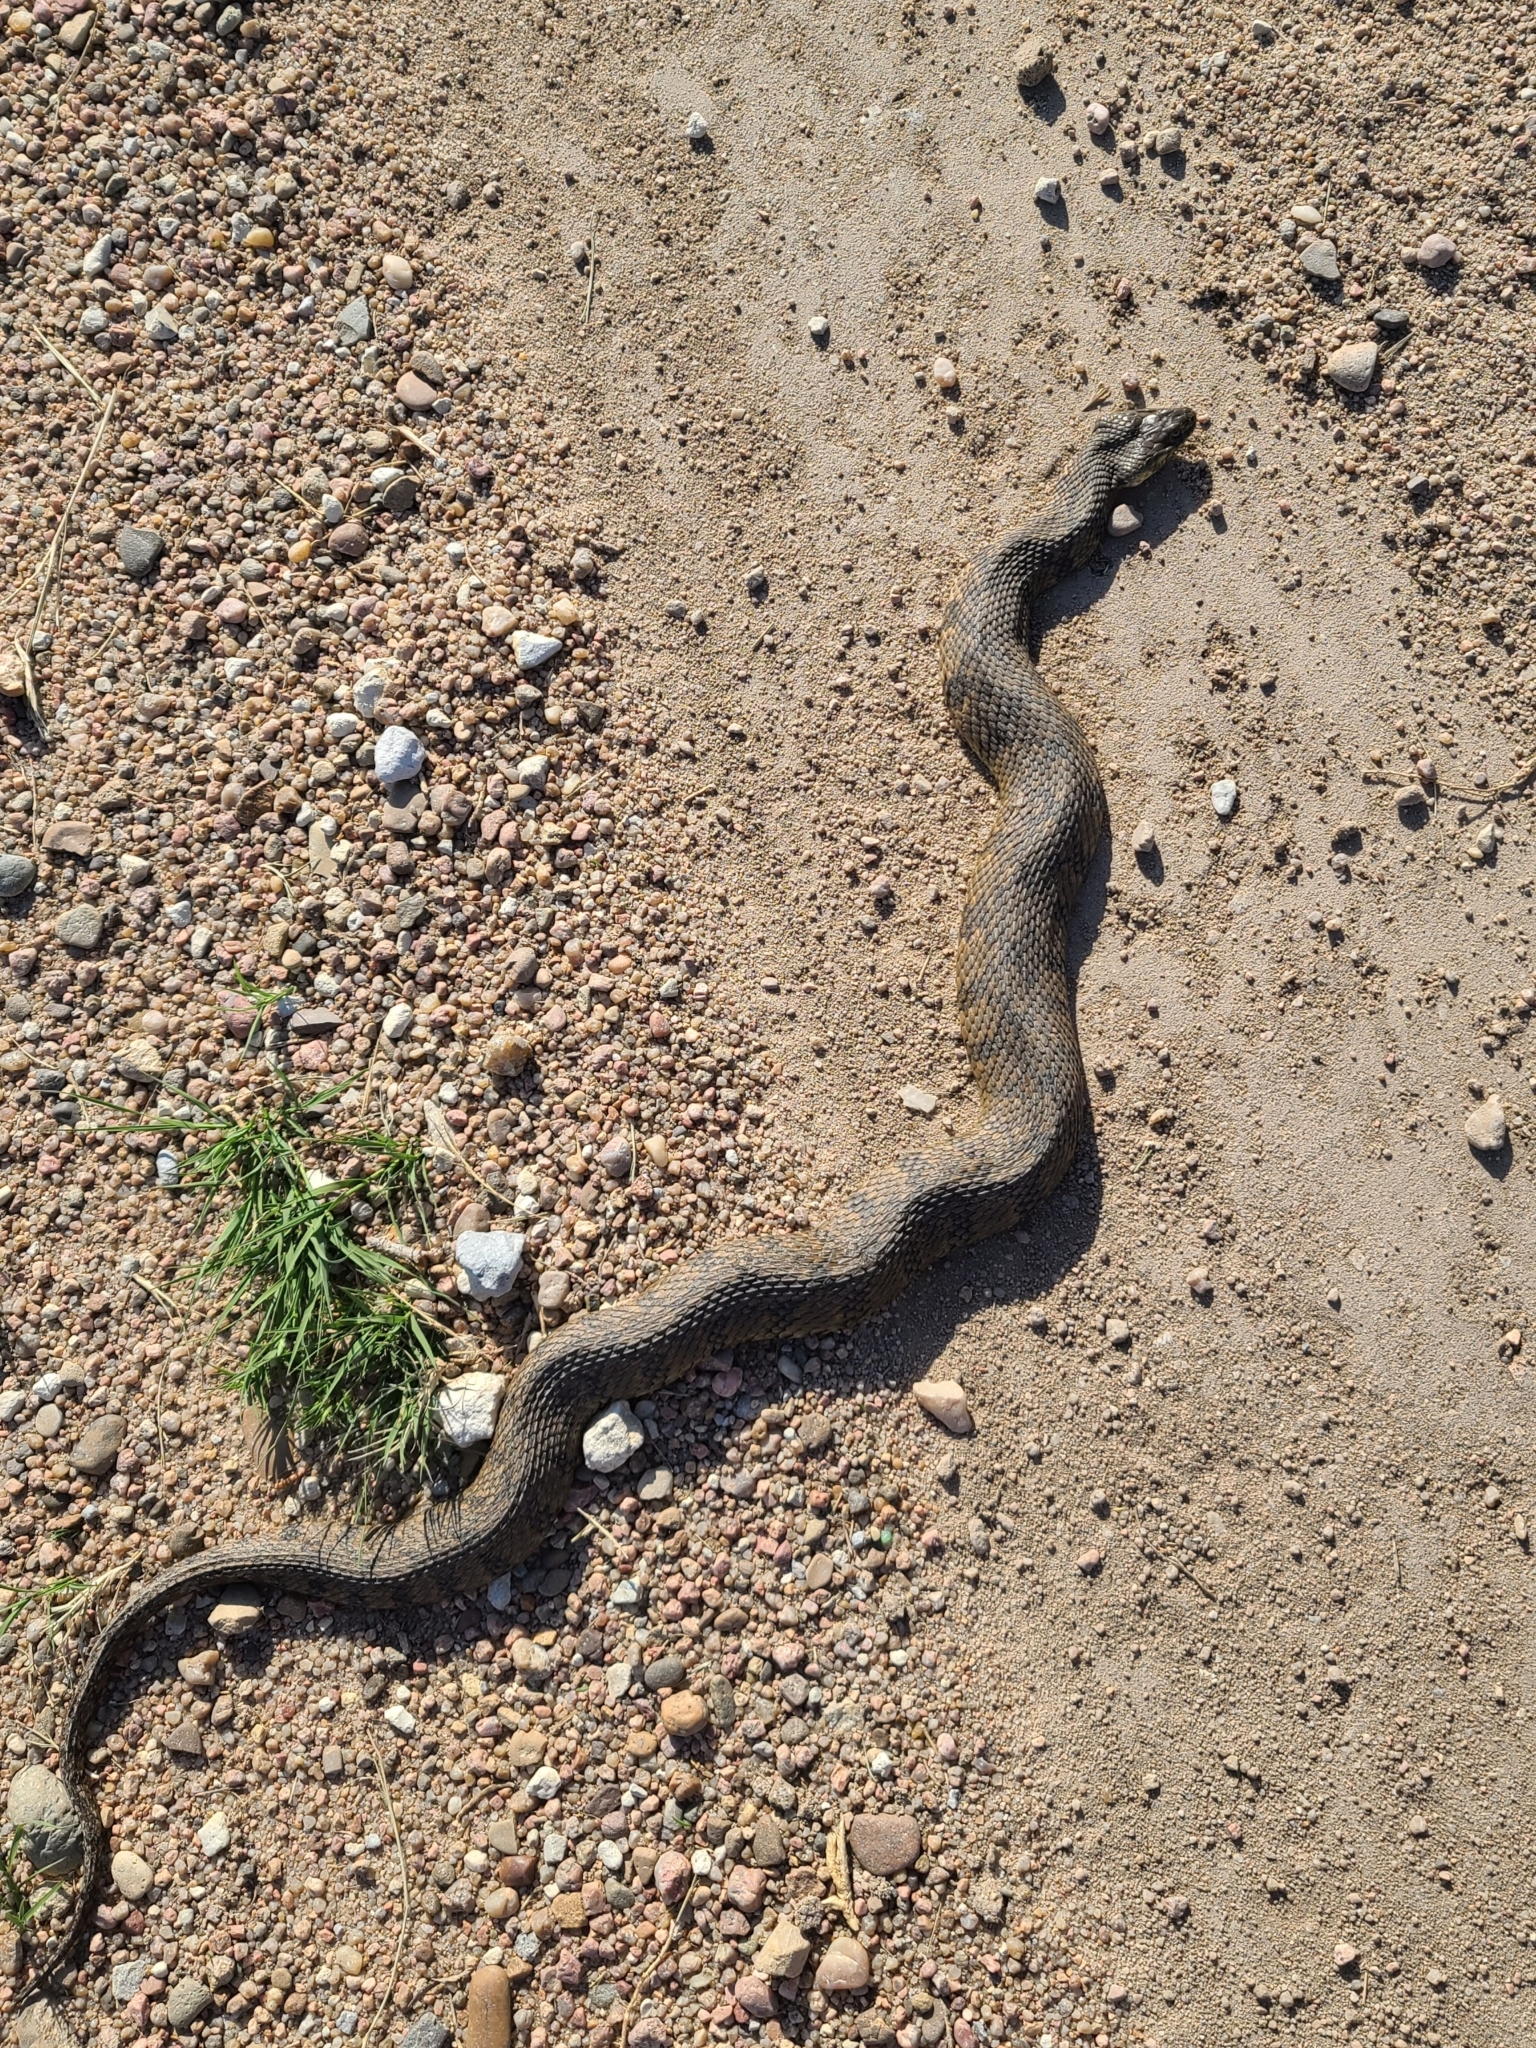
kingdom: Animalia
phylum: Chordata
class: Squamata
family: Colubridae
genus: Nerodia
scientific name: Nerodia rhombifer
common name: Diamondback water snake
